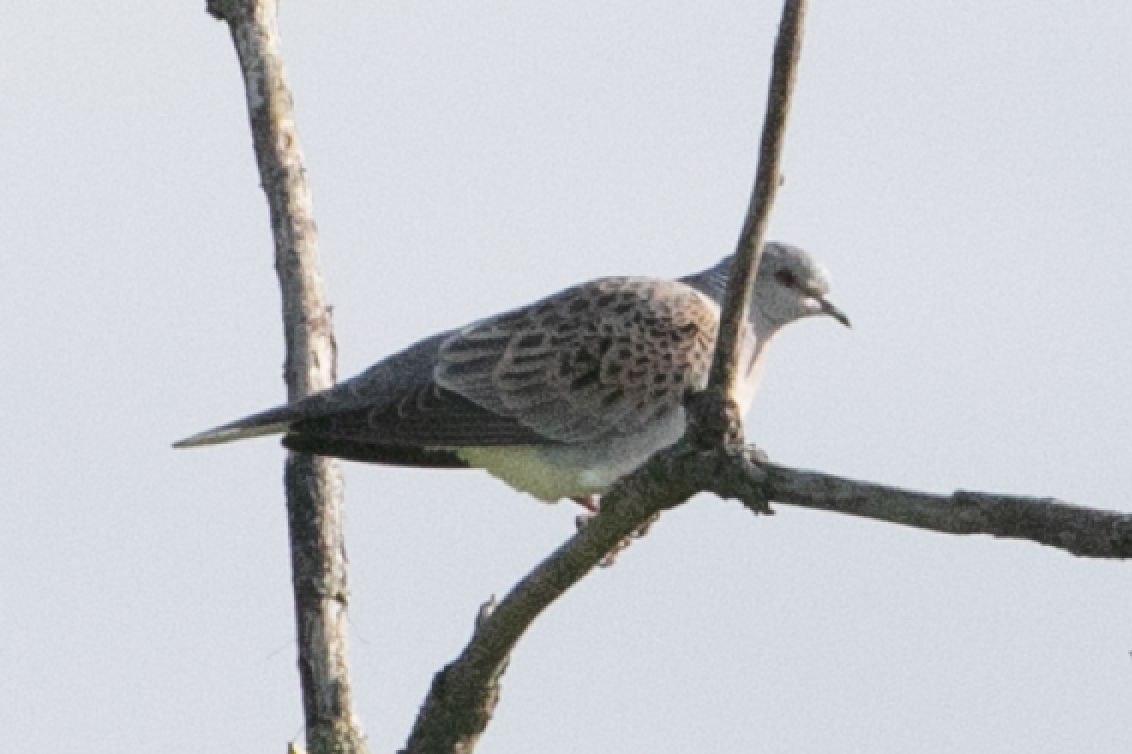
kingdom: Animalia
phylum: Chordata
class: Aves
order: Columbiformes
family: Columbidae
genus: Streptopelia
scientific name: Streptopelia turtur
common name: European turtle dove
